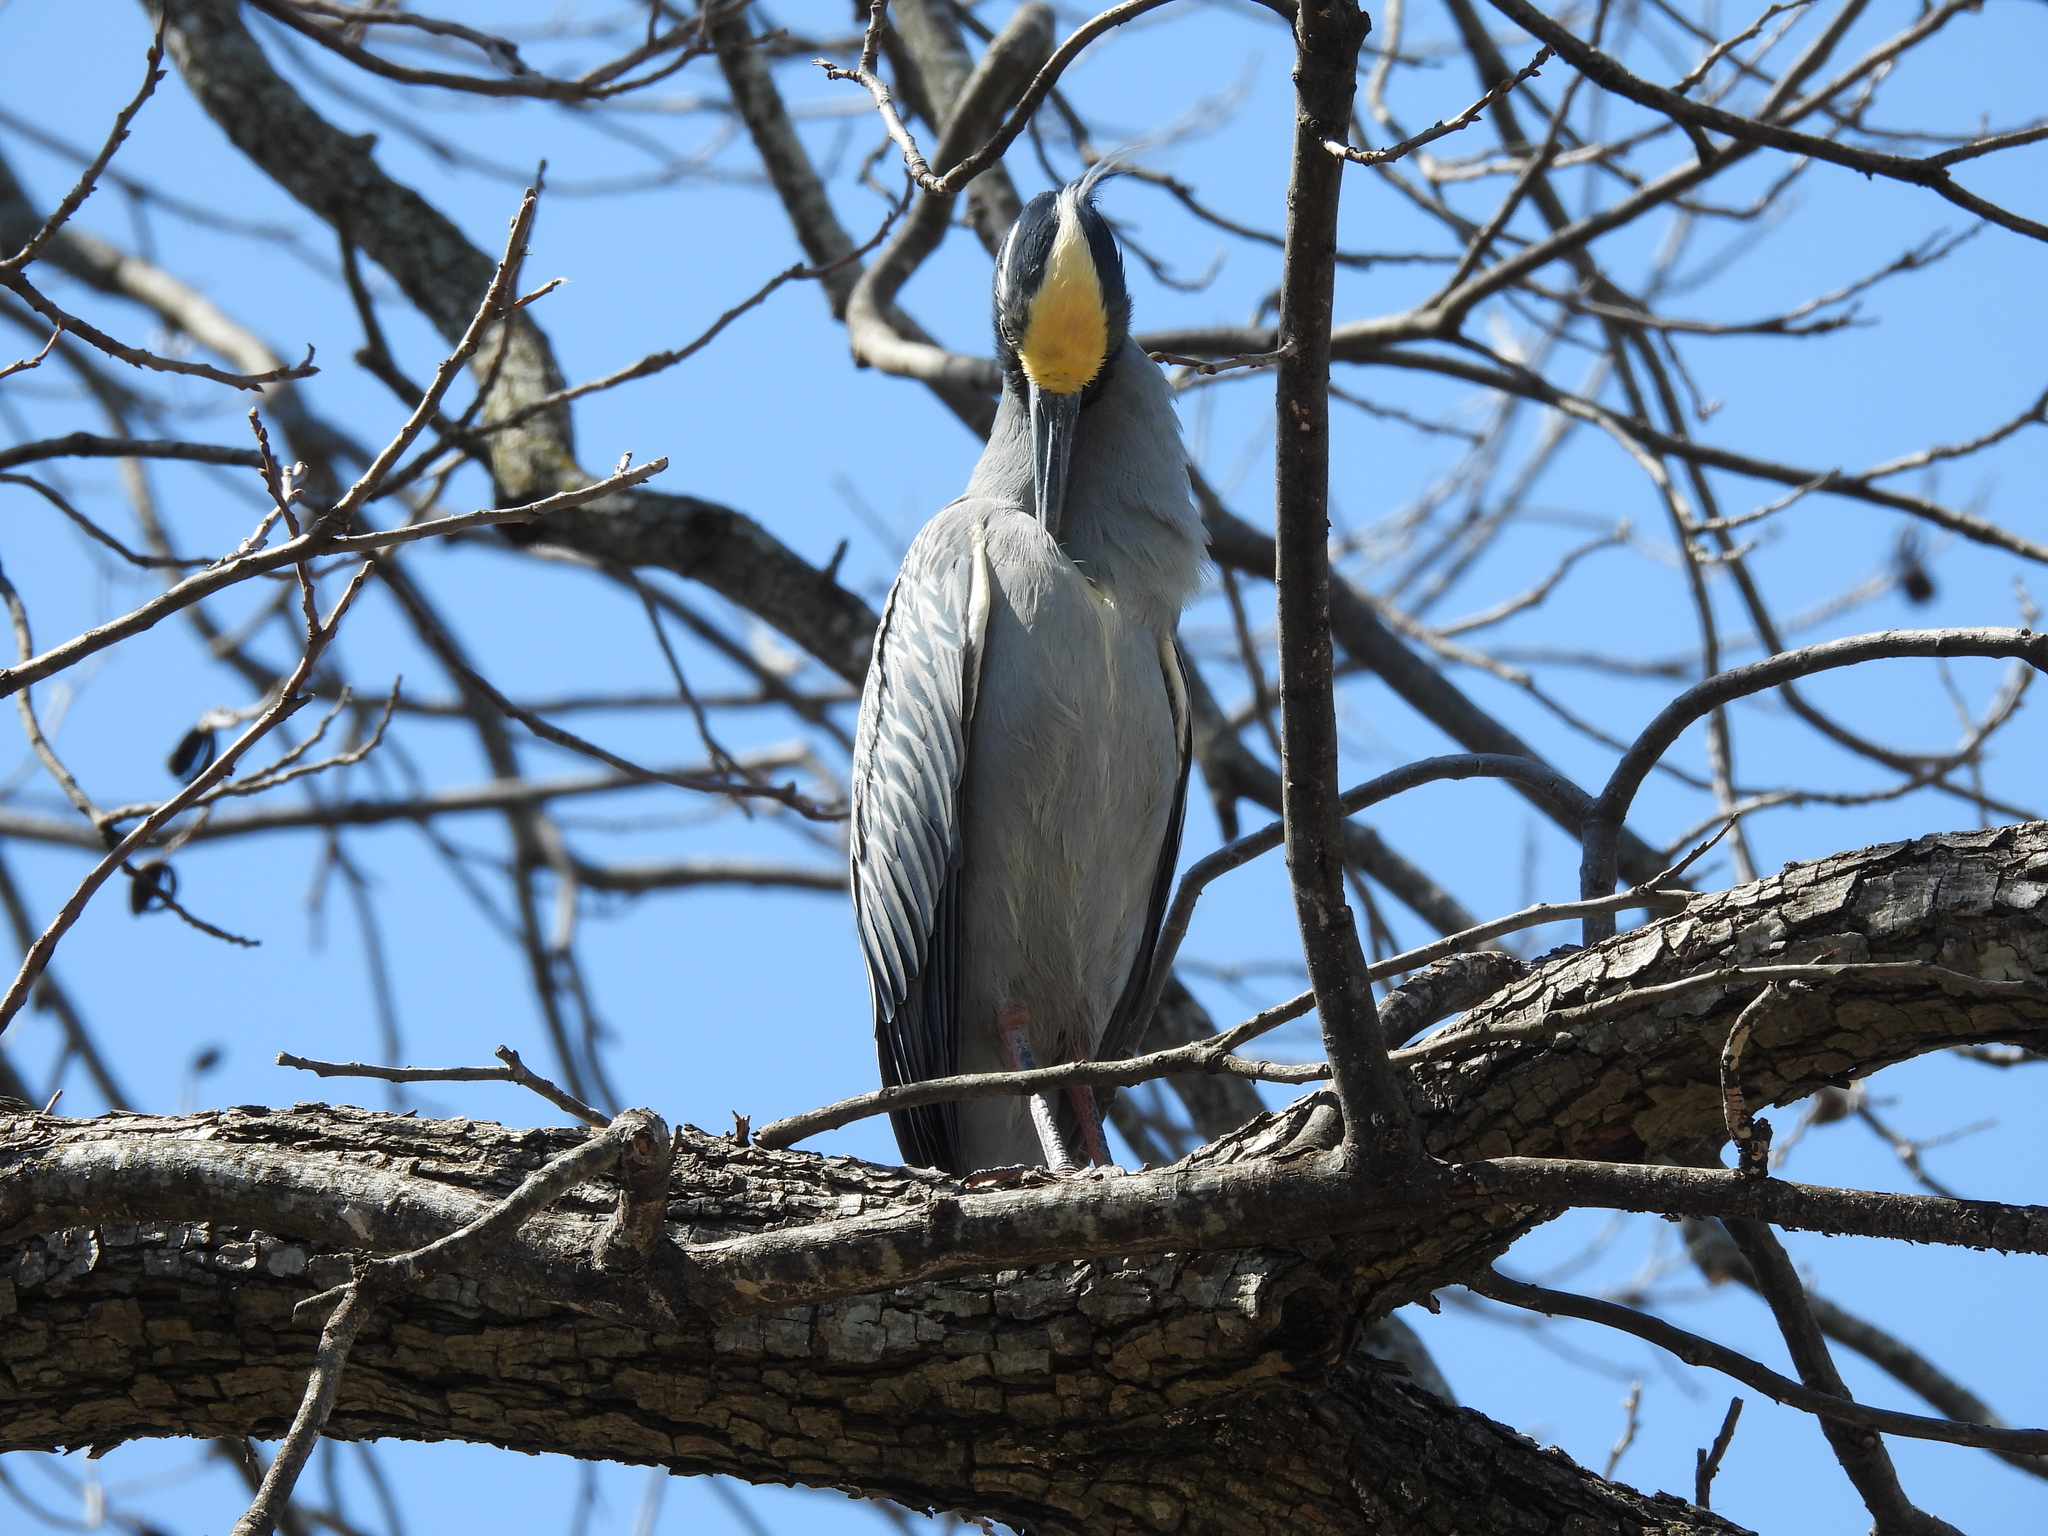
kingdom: Animalia
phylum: Chordata
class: Aves
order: Pelecaniformes
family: Ardeidae
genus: Nyctanassa
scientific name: Nyctanassa violacea
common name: Yellow-crowned night heron
